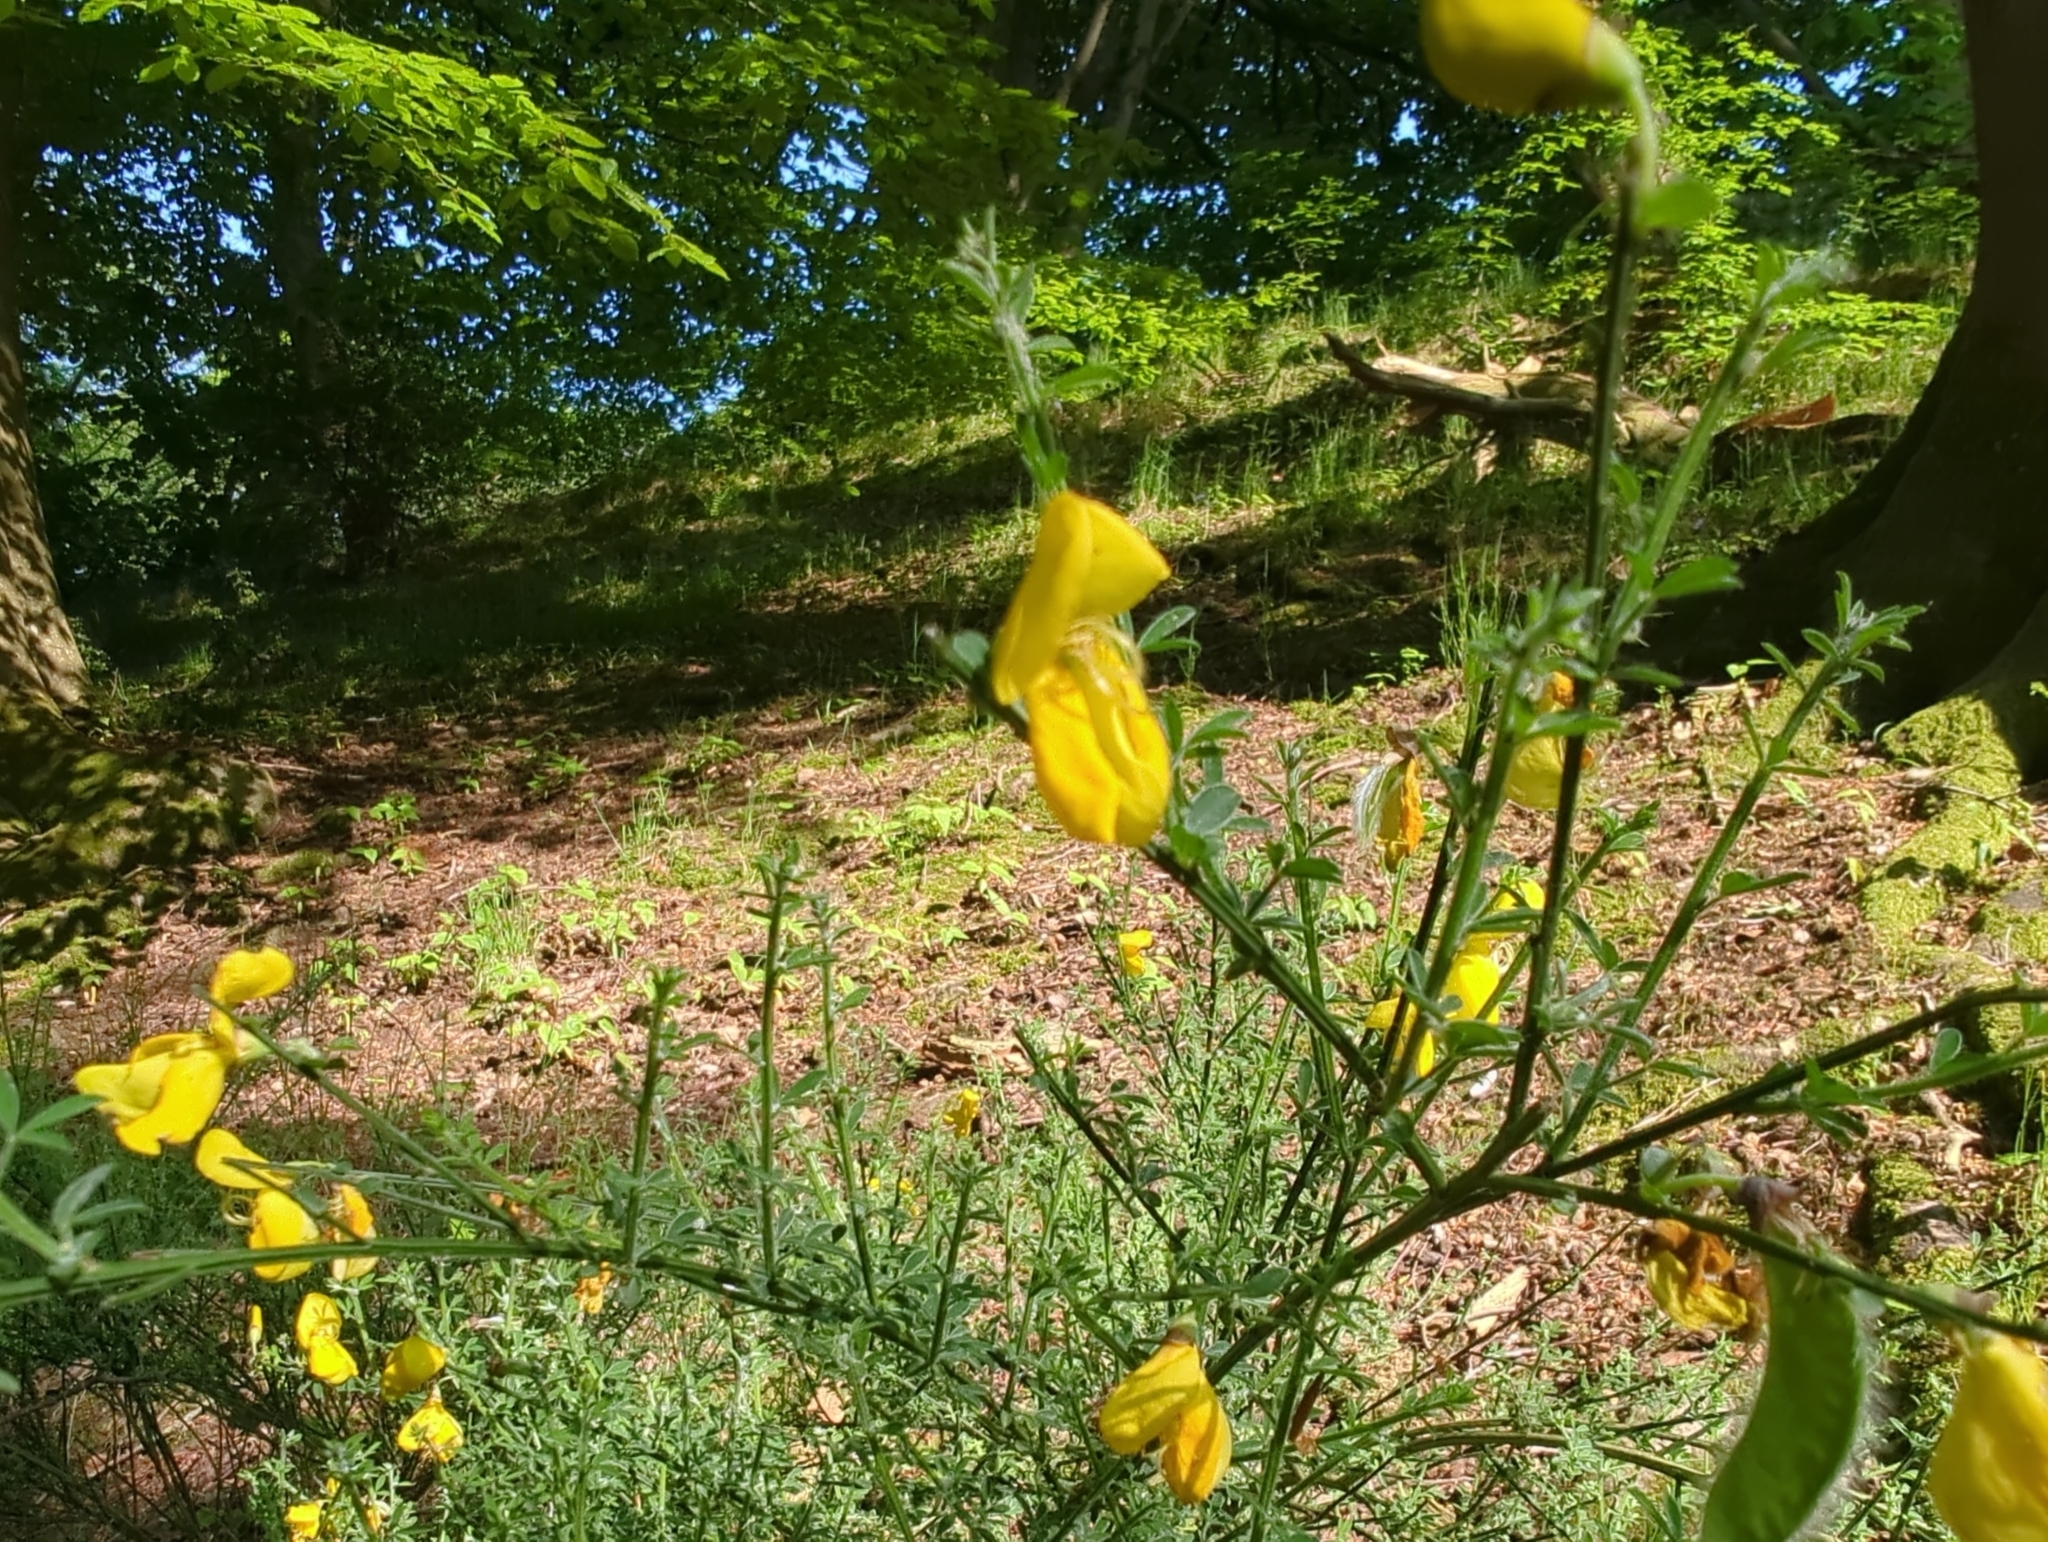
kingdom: Plantae
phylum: Tracheophyta
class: Magnoliopsida
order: Fabales
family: Fabaceae
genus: Cytisus
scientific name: Cytisus scoparius
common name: Scotch broom
